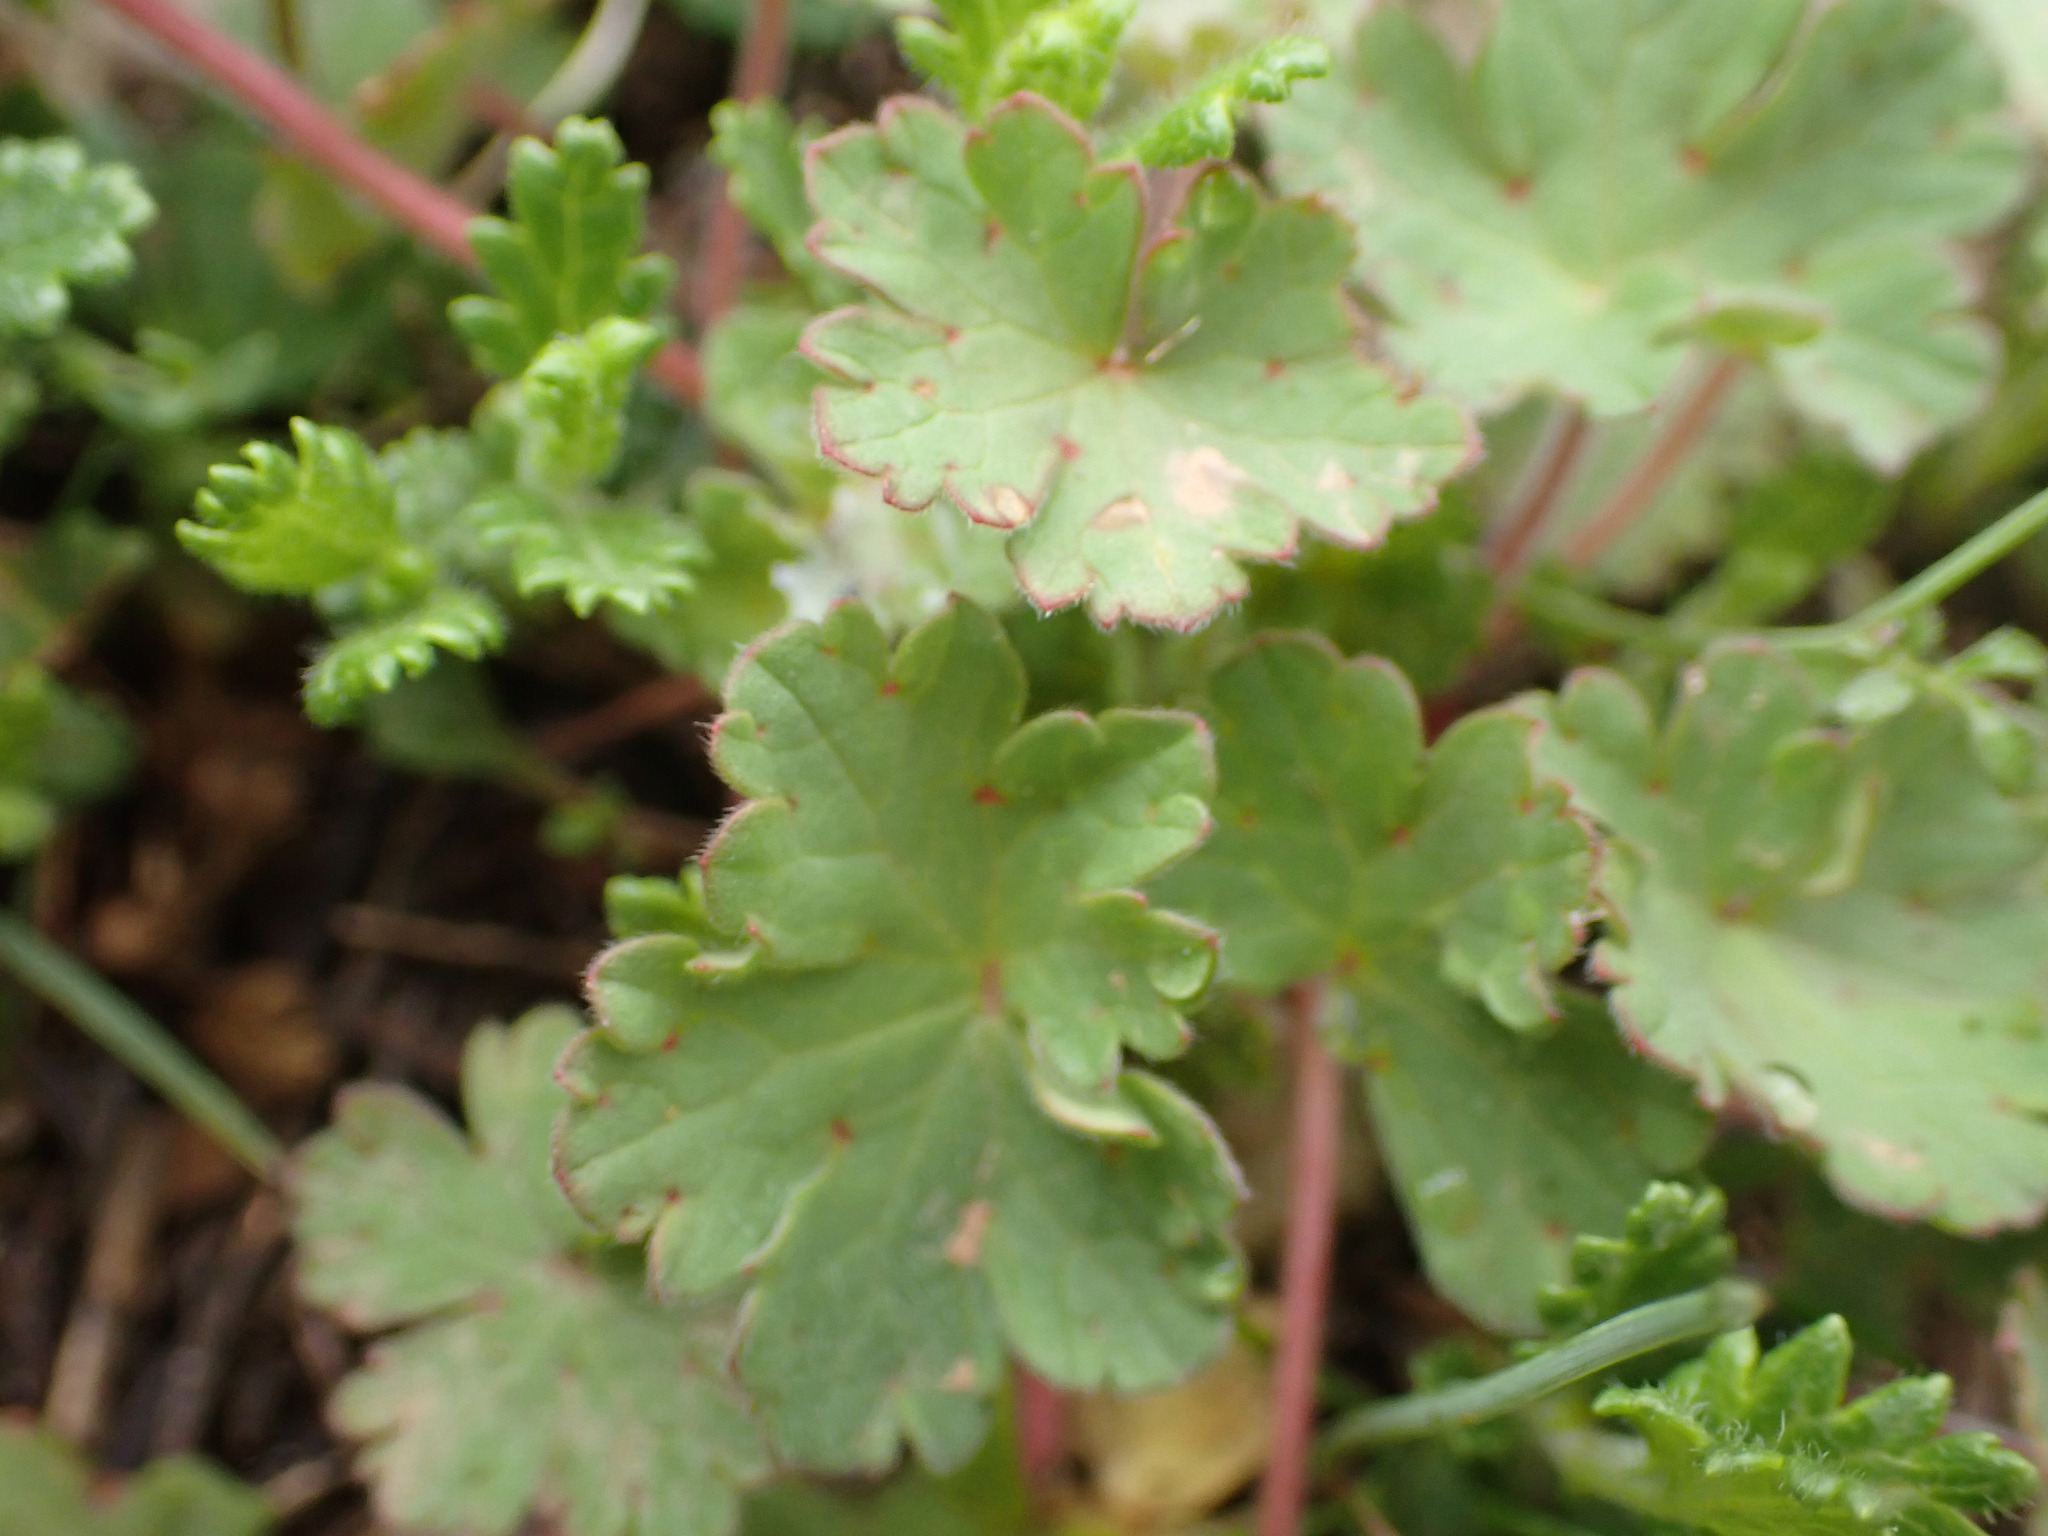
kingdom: Plantae
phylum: Tracheophyta
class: Magnoliopsida
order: Geraniales
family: Geraniaceae
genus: Geranium
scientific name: Geranium rotundifolium
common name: Round-leaved crane's-bill
